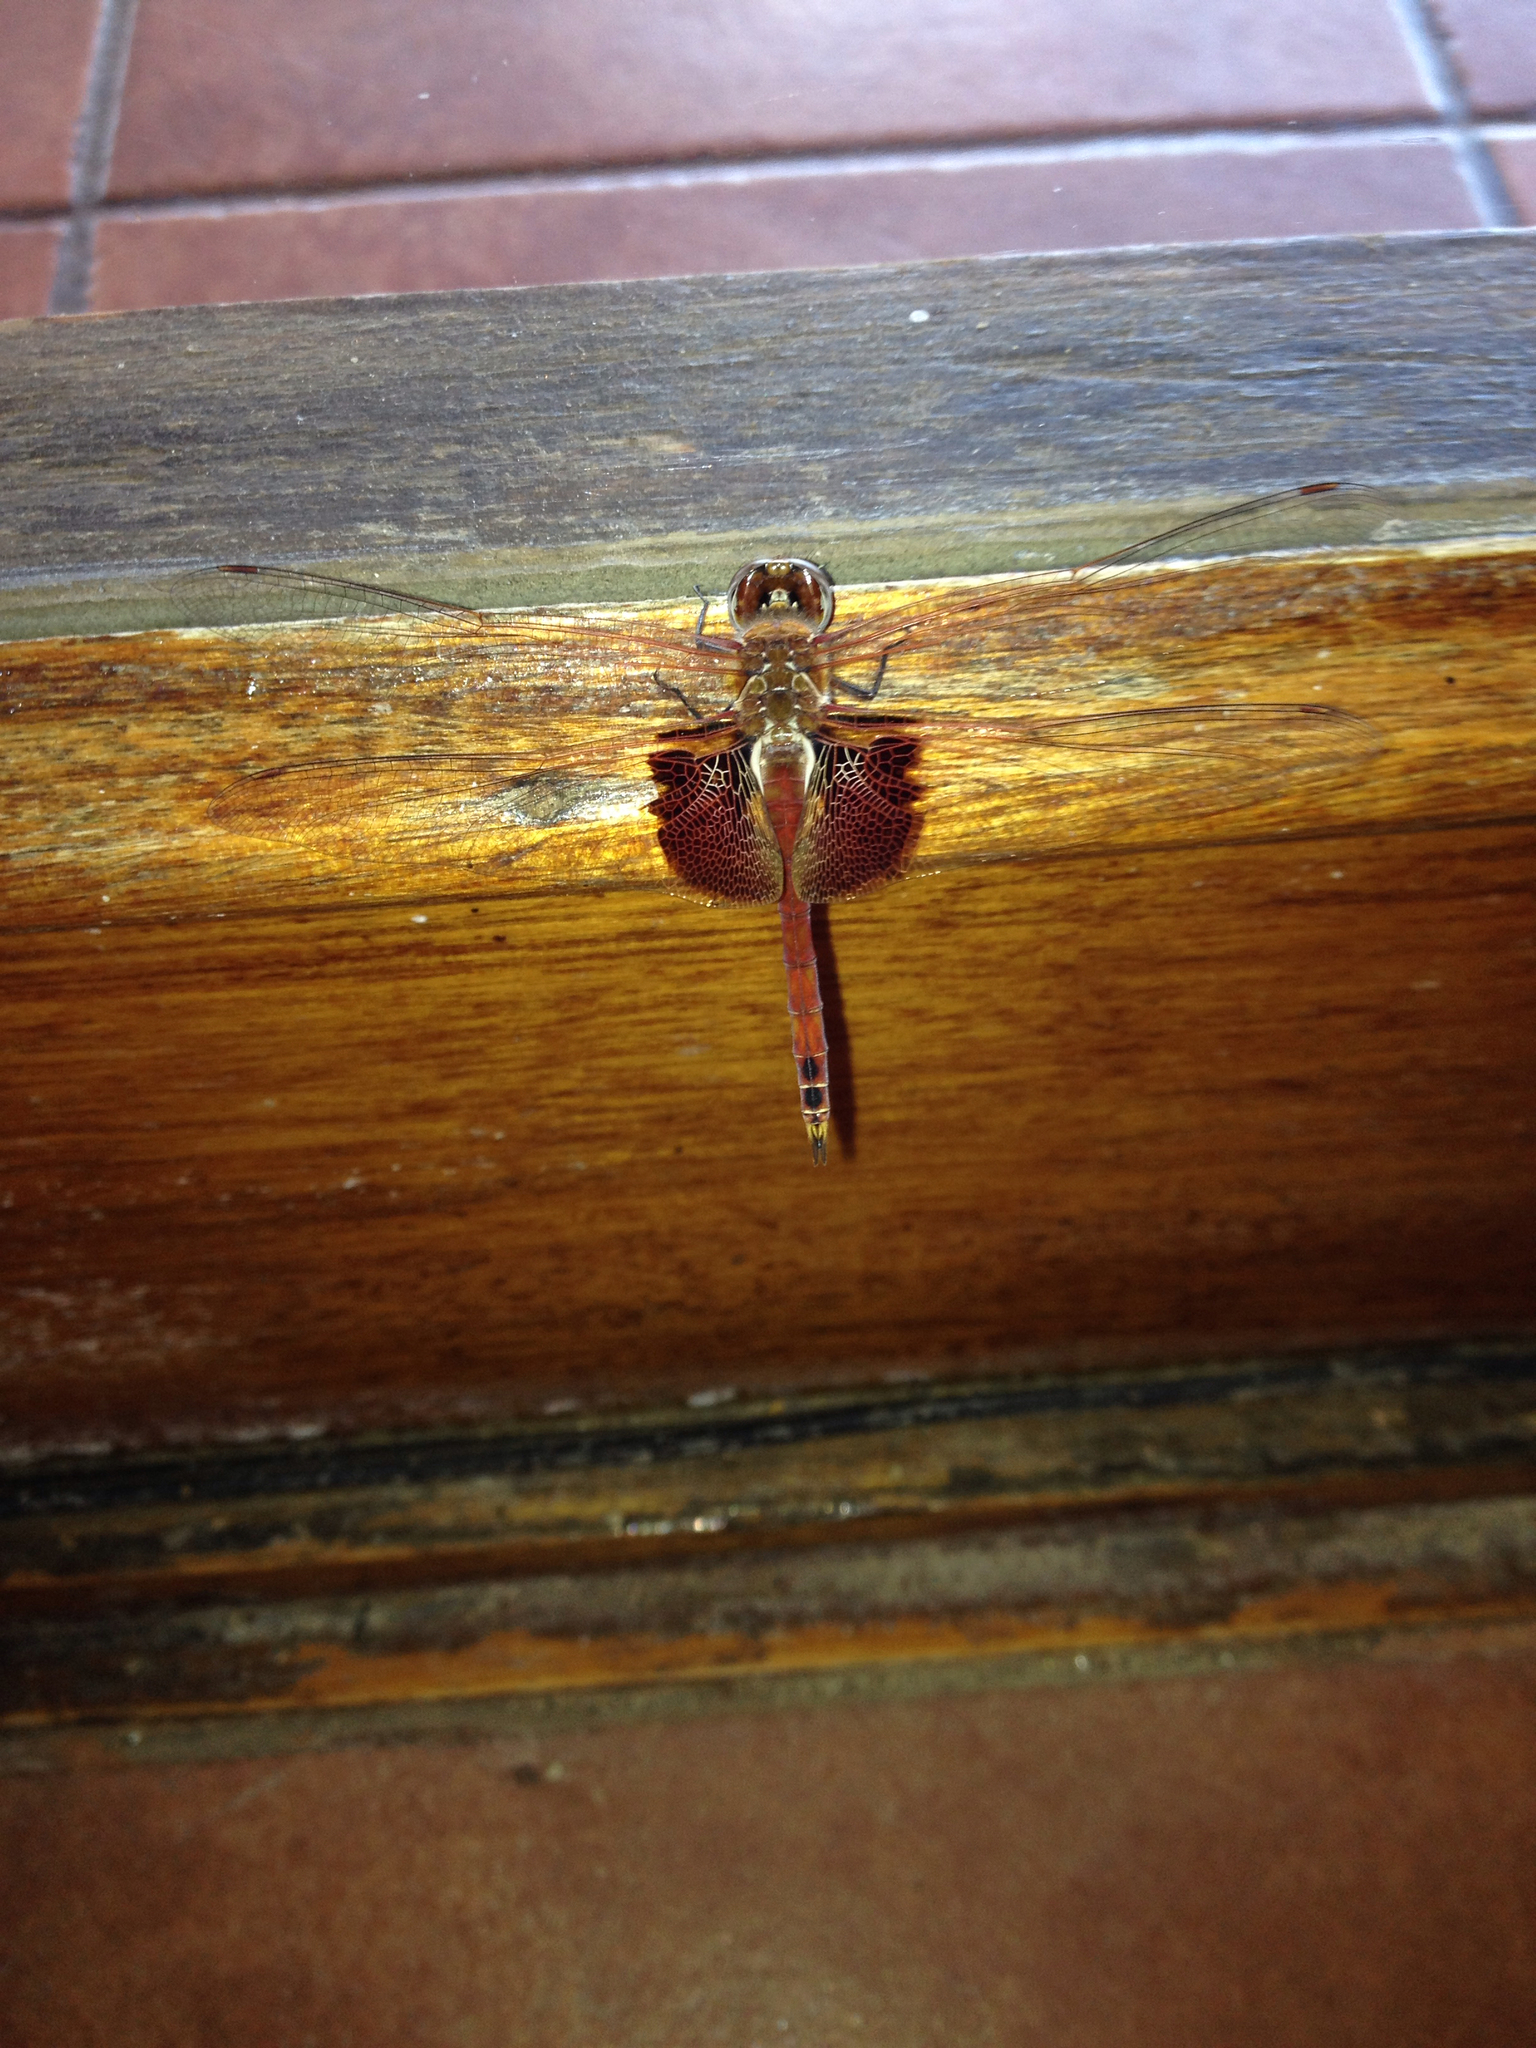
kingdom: Animalia
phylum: Arthropoda
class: Insecta
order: Odonata
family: Libellulidae
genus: Tramea
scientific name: Tramea onusta
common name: Red saddlebags
